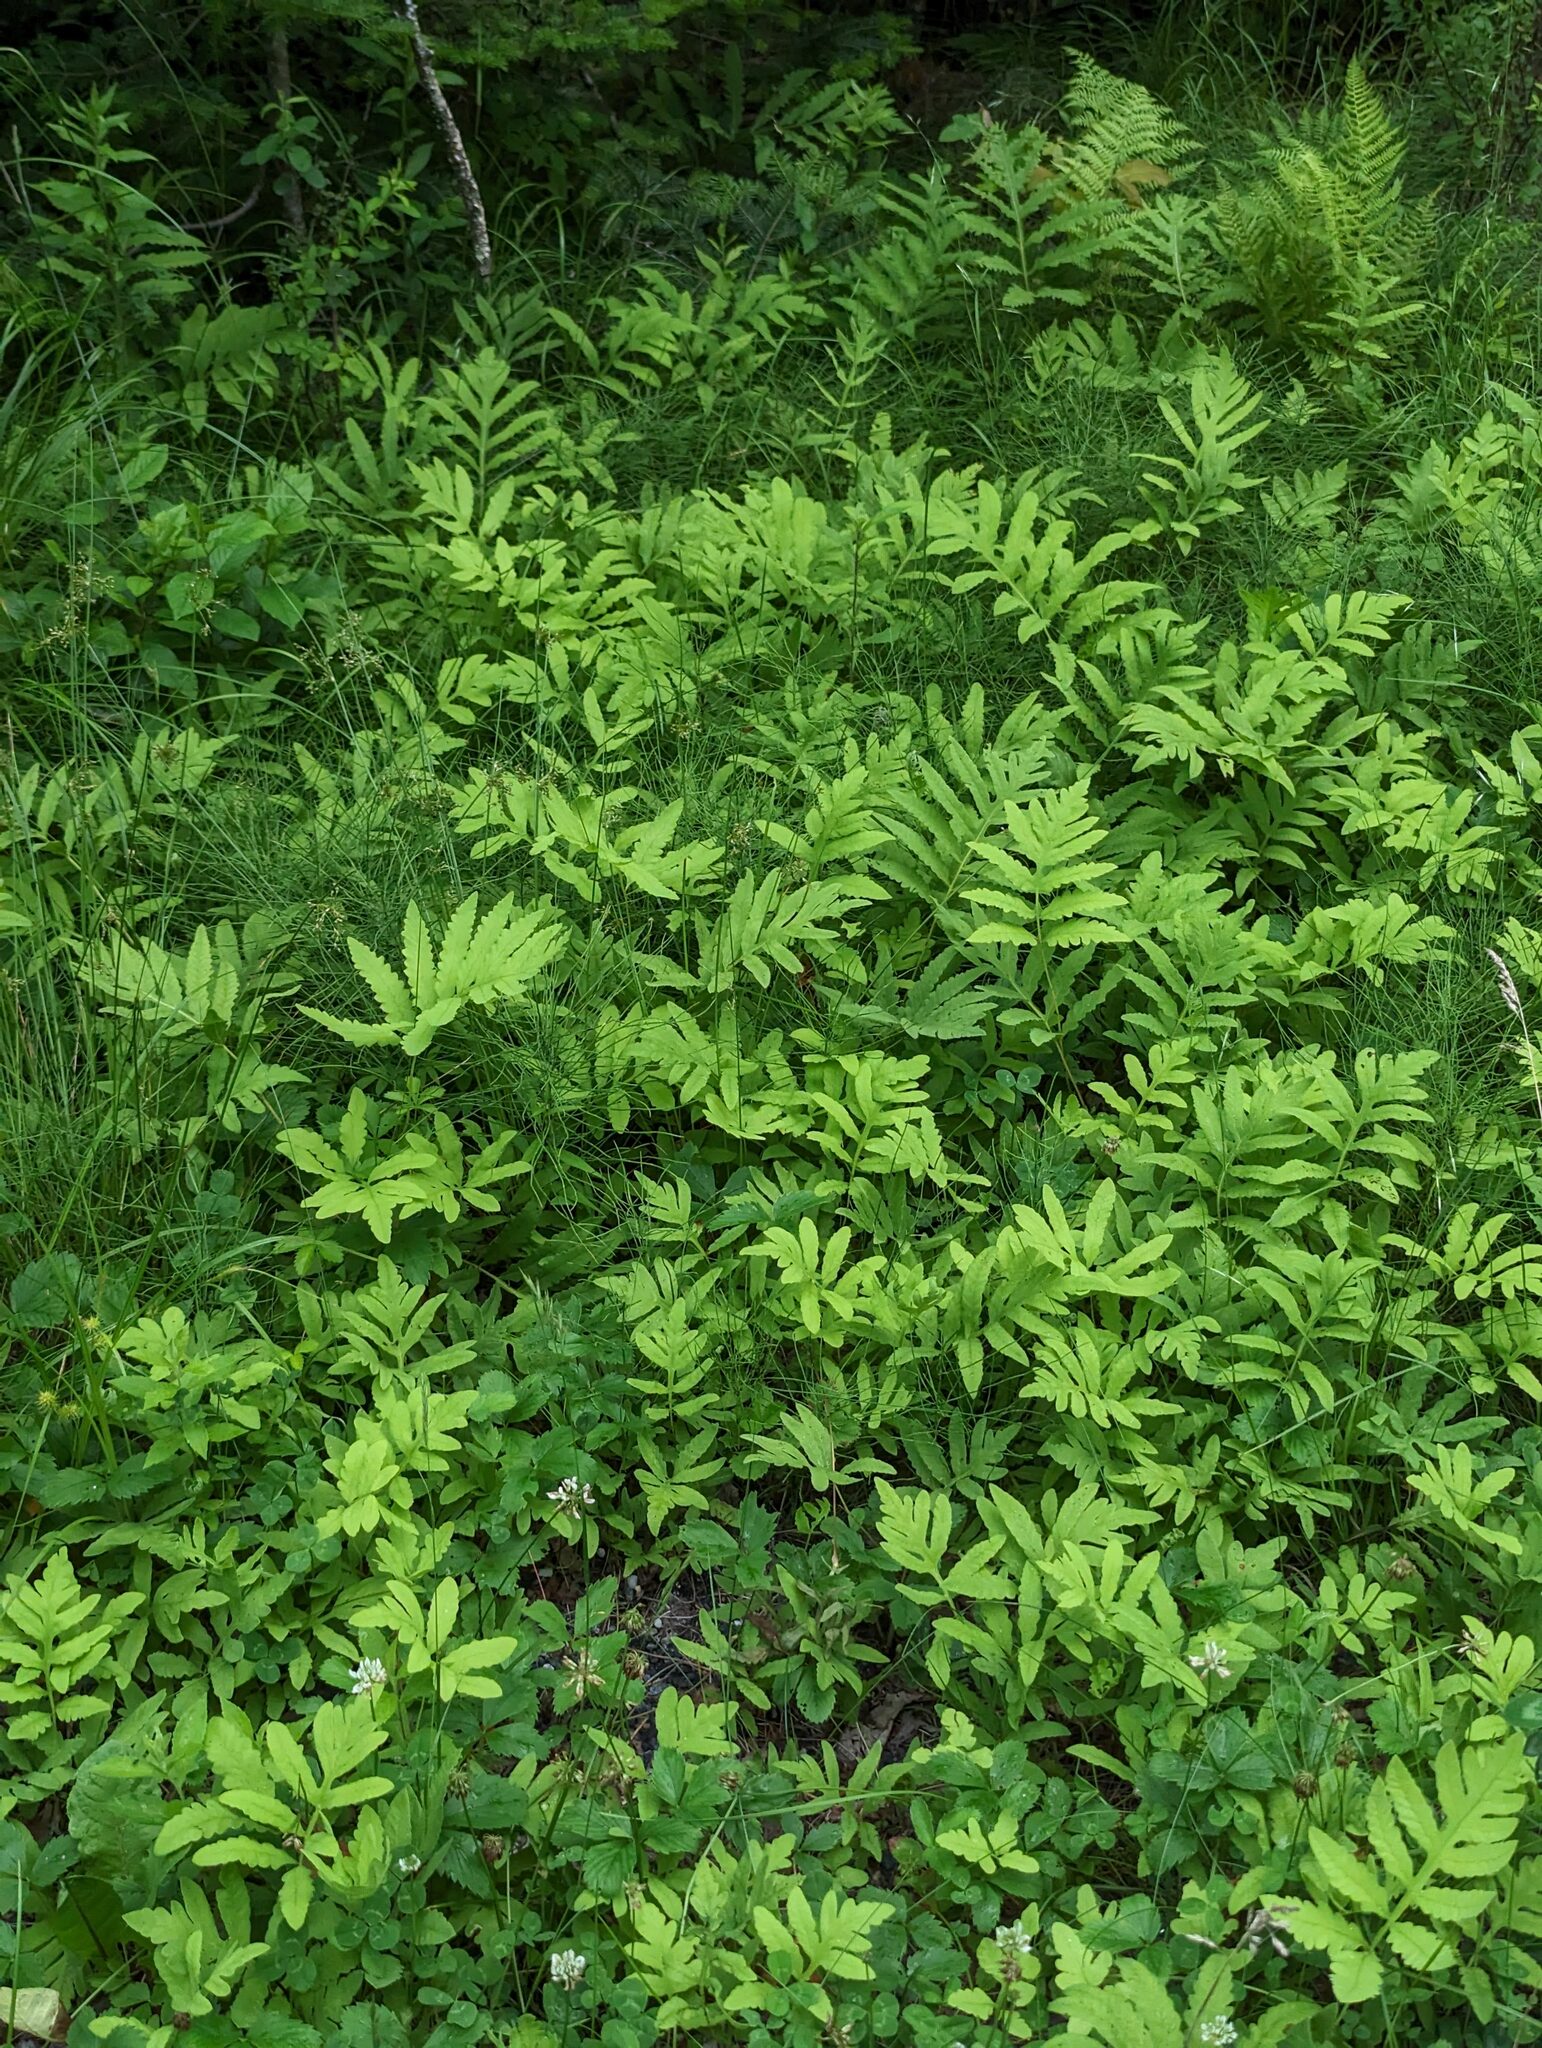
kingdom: Plantae
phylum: Tracheophyta
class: Polypodiopsida
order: Polypodiales
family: Onocleaceae
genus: Onoclea
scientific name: Onoclea sensibilis
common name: Sensitive fern
